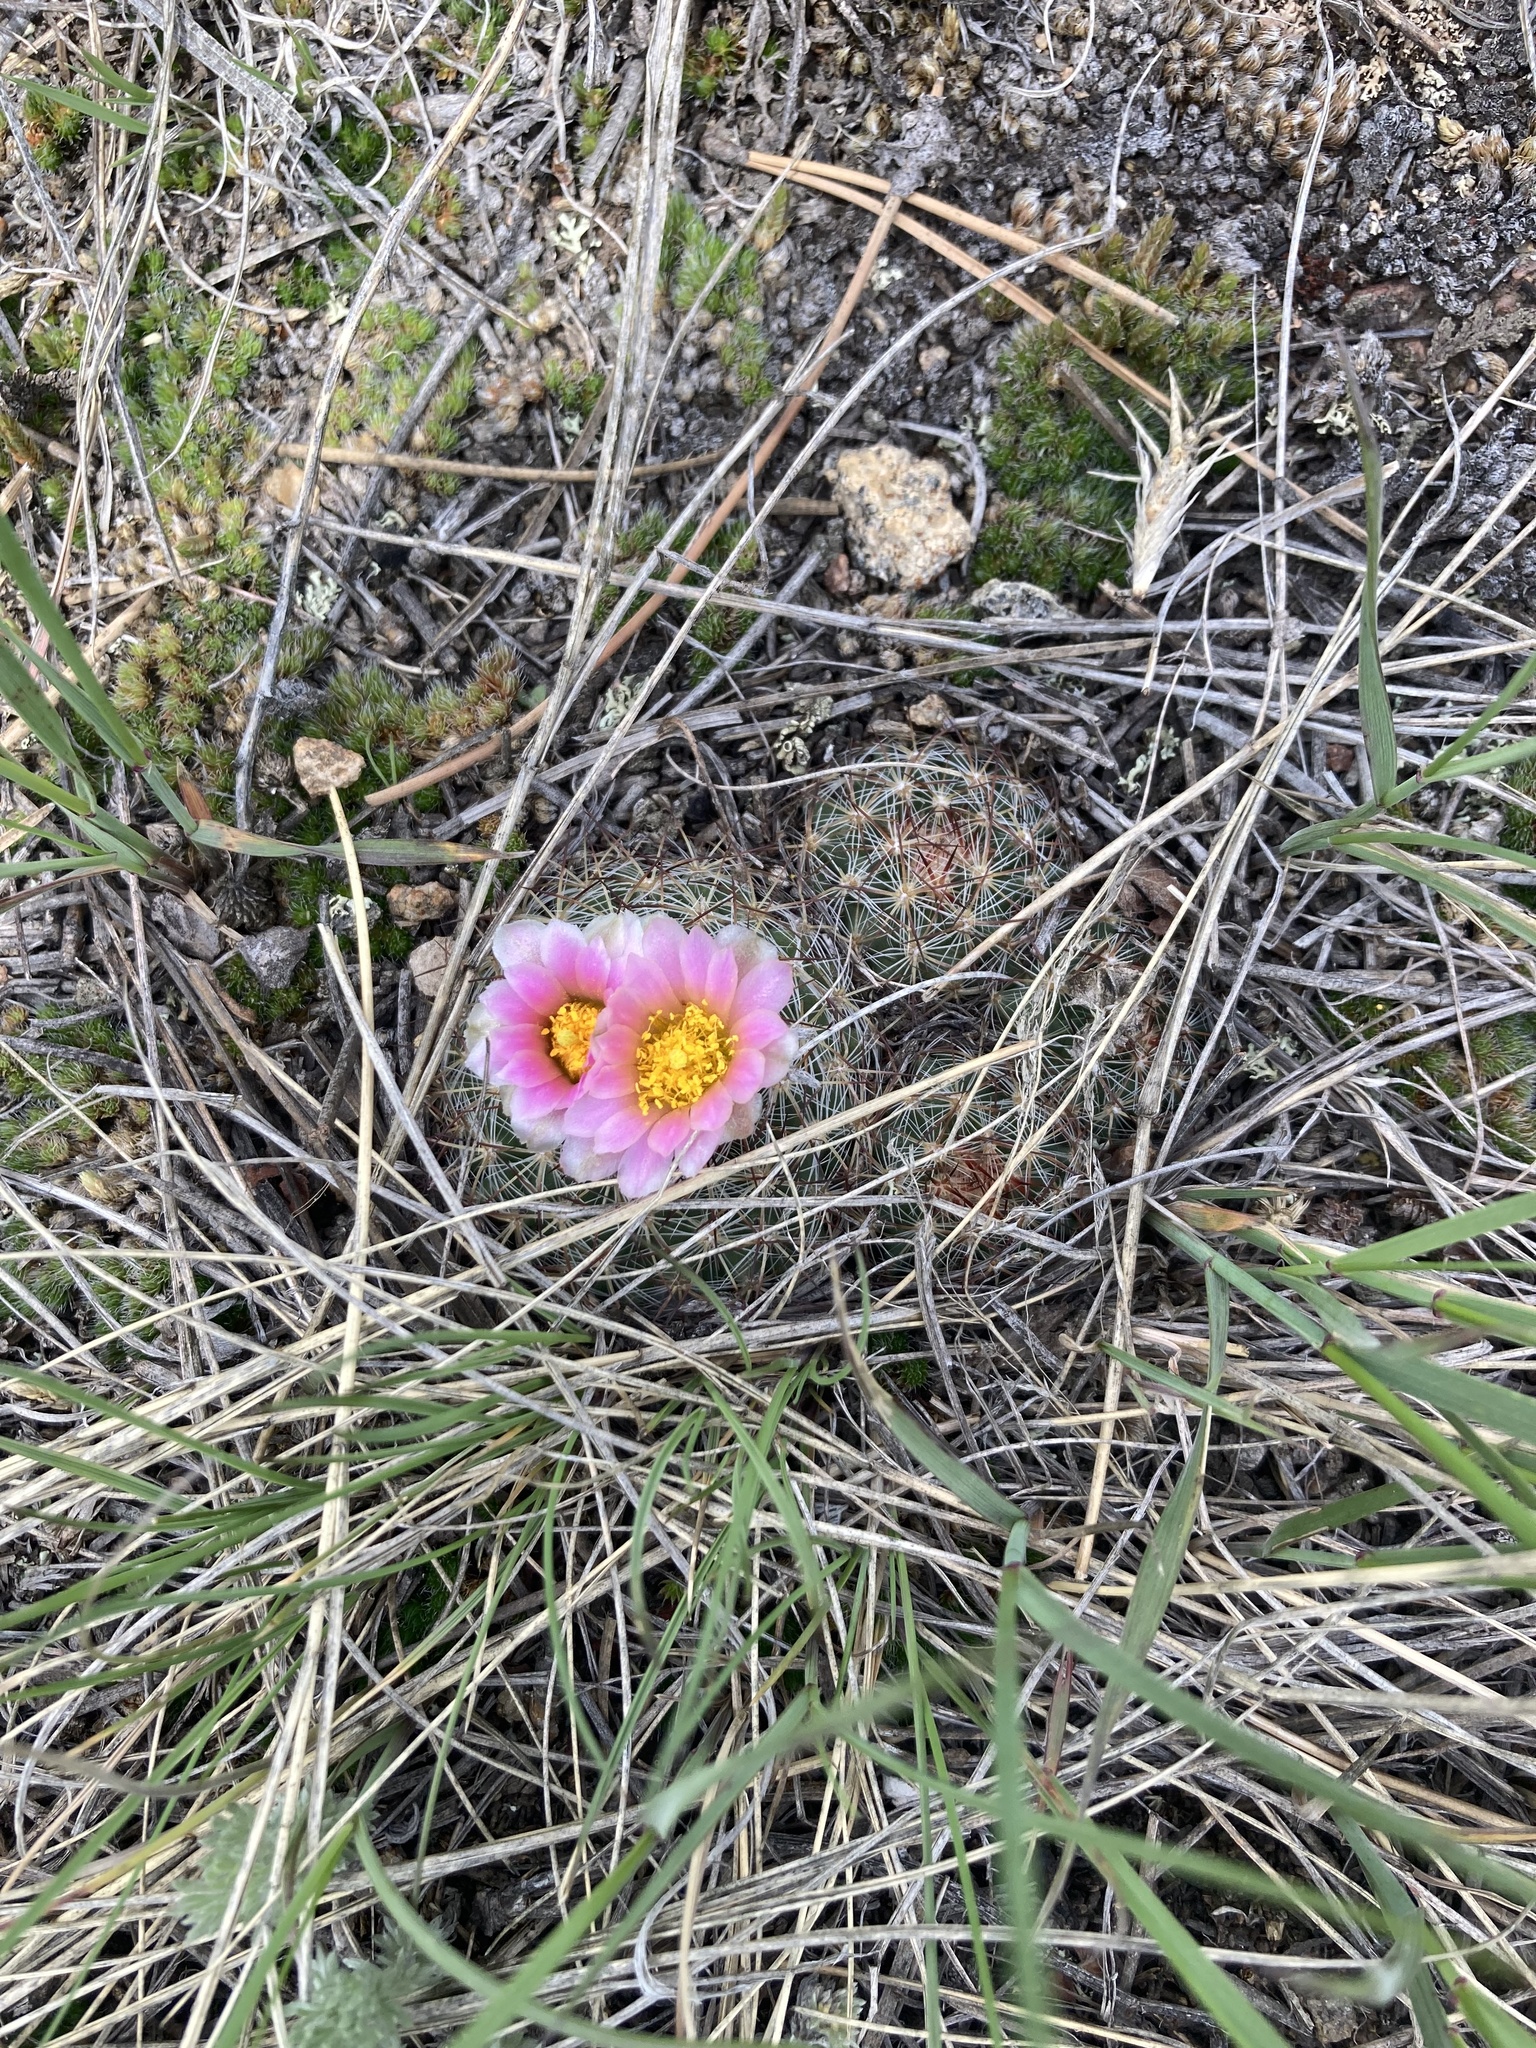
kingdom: Plantae
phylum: Tracheophyta
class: Magnoliopsida
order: Caryophyllales
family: Cactaceae
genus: Pediocactus
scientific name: Pediocactus simpsonii
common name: Simpson's hedgehog cactus
